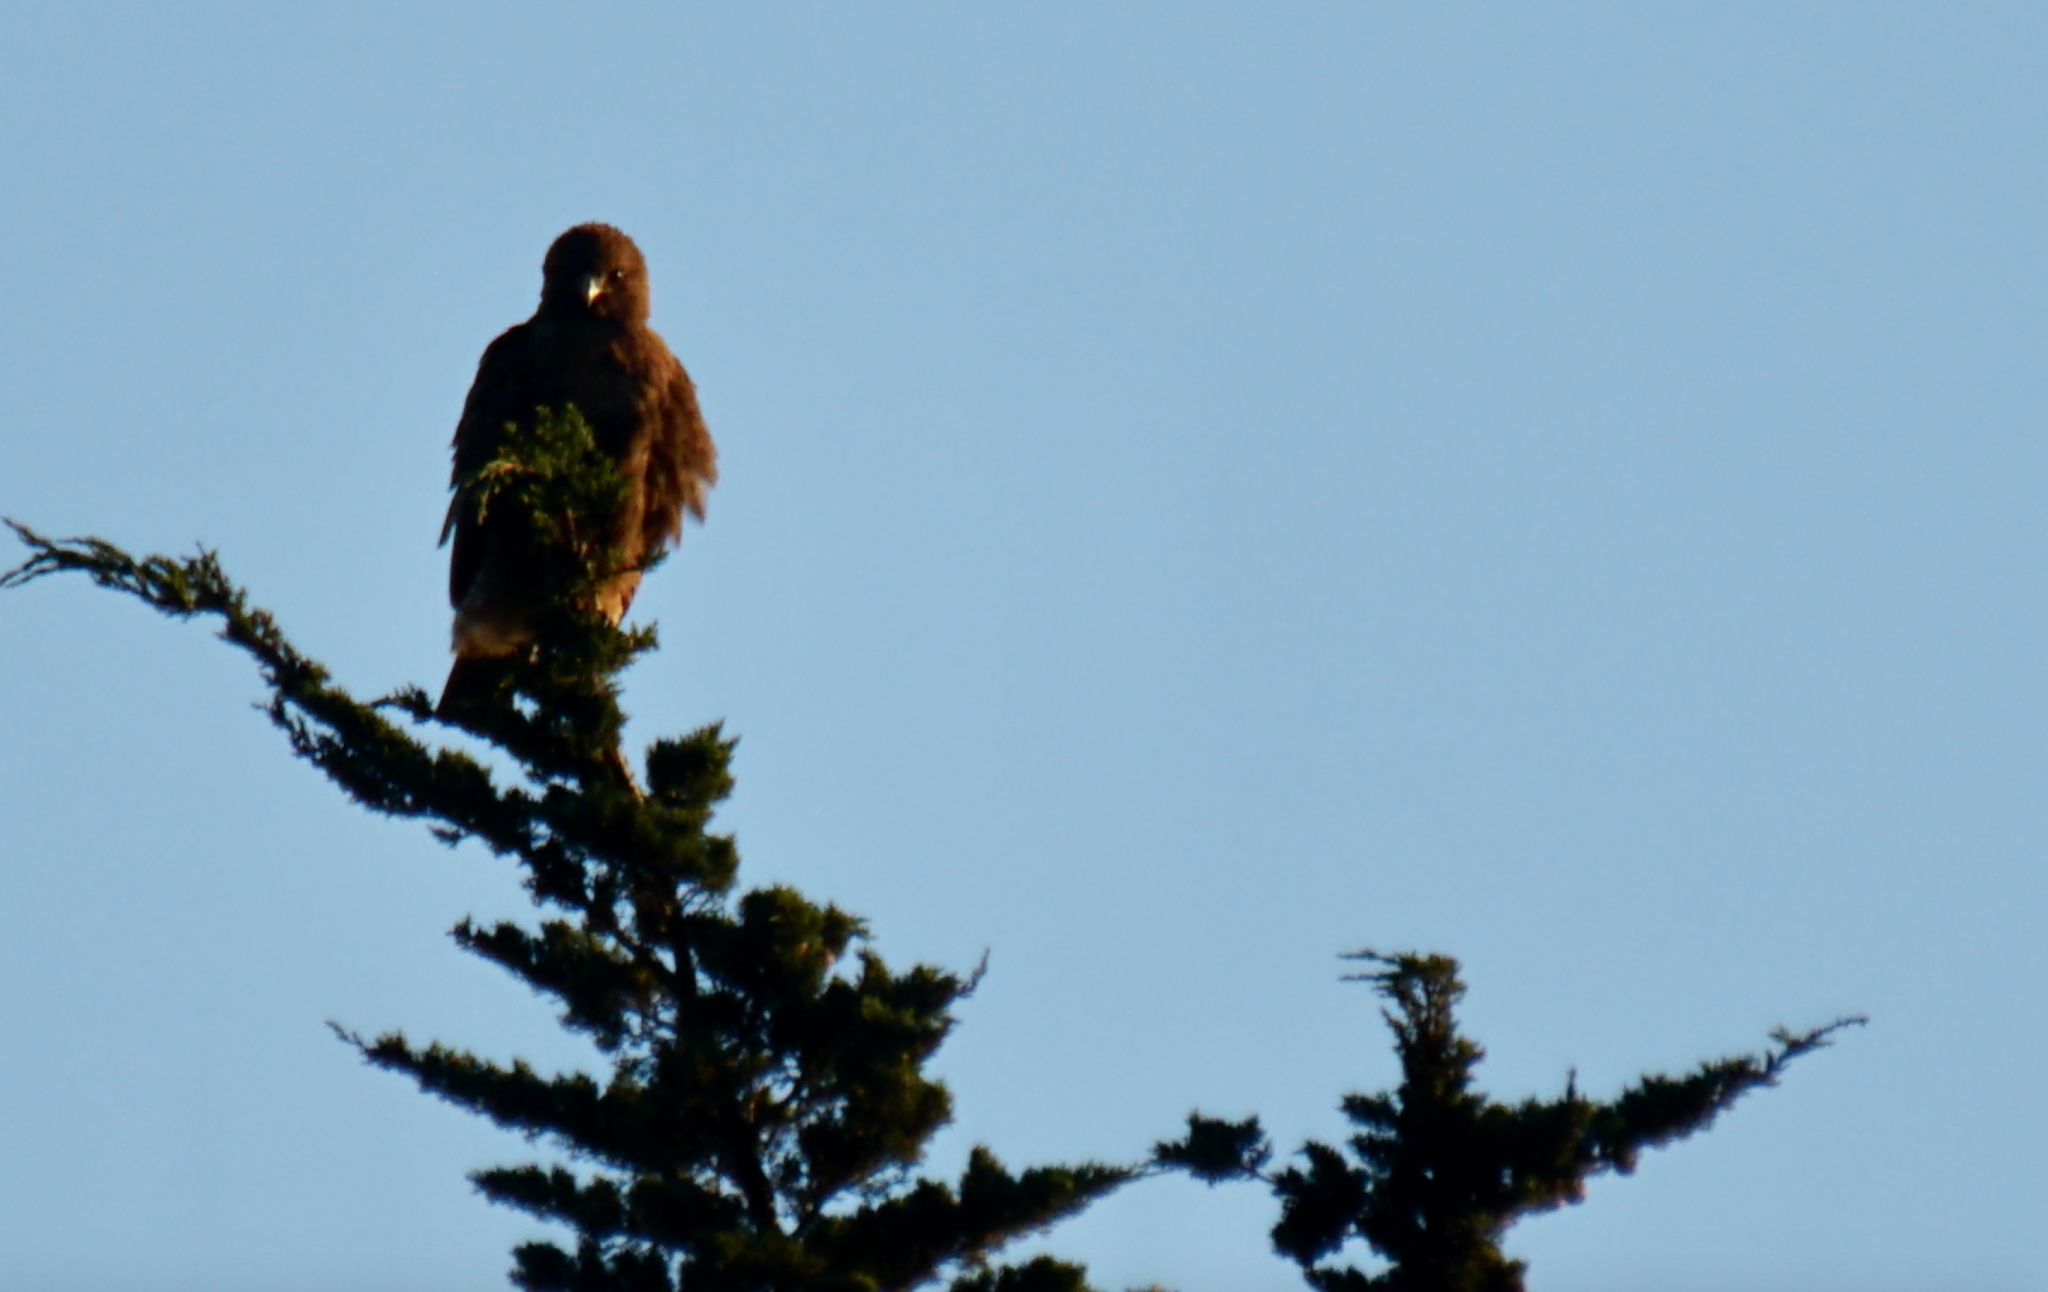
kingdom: Animalia
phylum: Chordata
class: Aves
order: Accipitriformes
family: Accipitridae
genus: Buteo
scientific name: Buteo jamaicensis
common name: Red-tailed hawk
